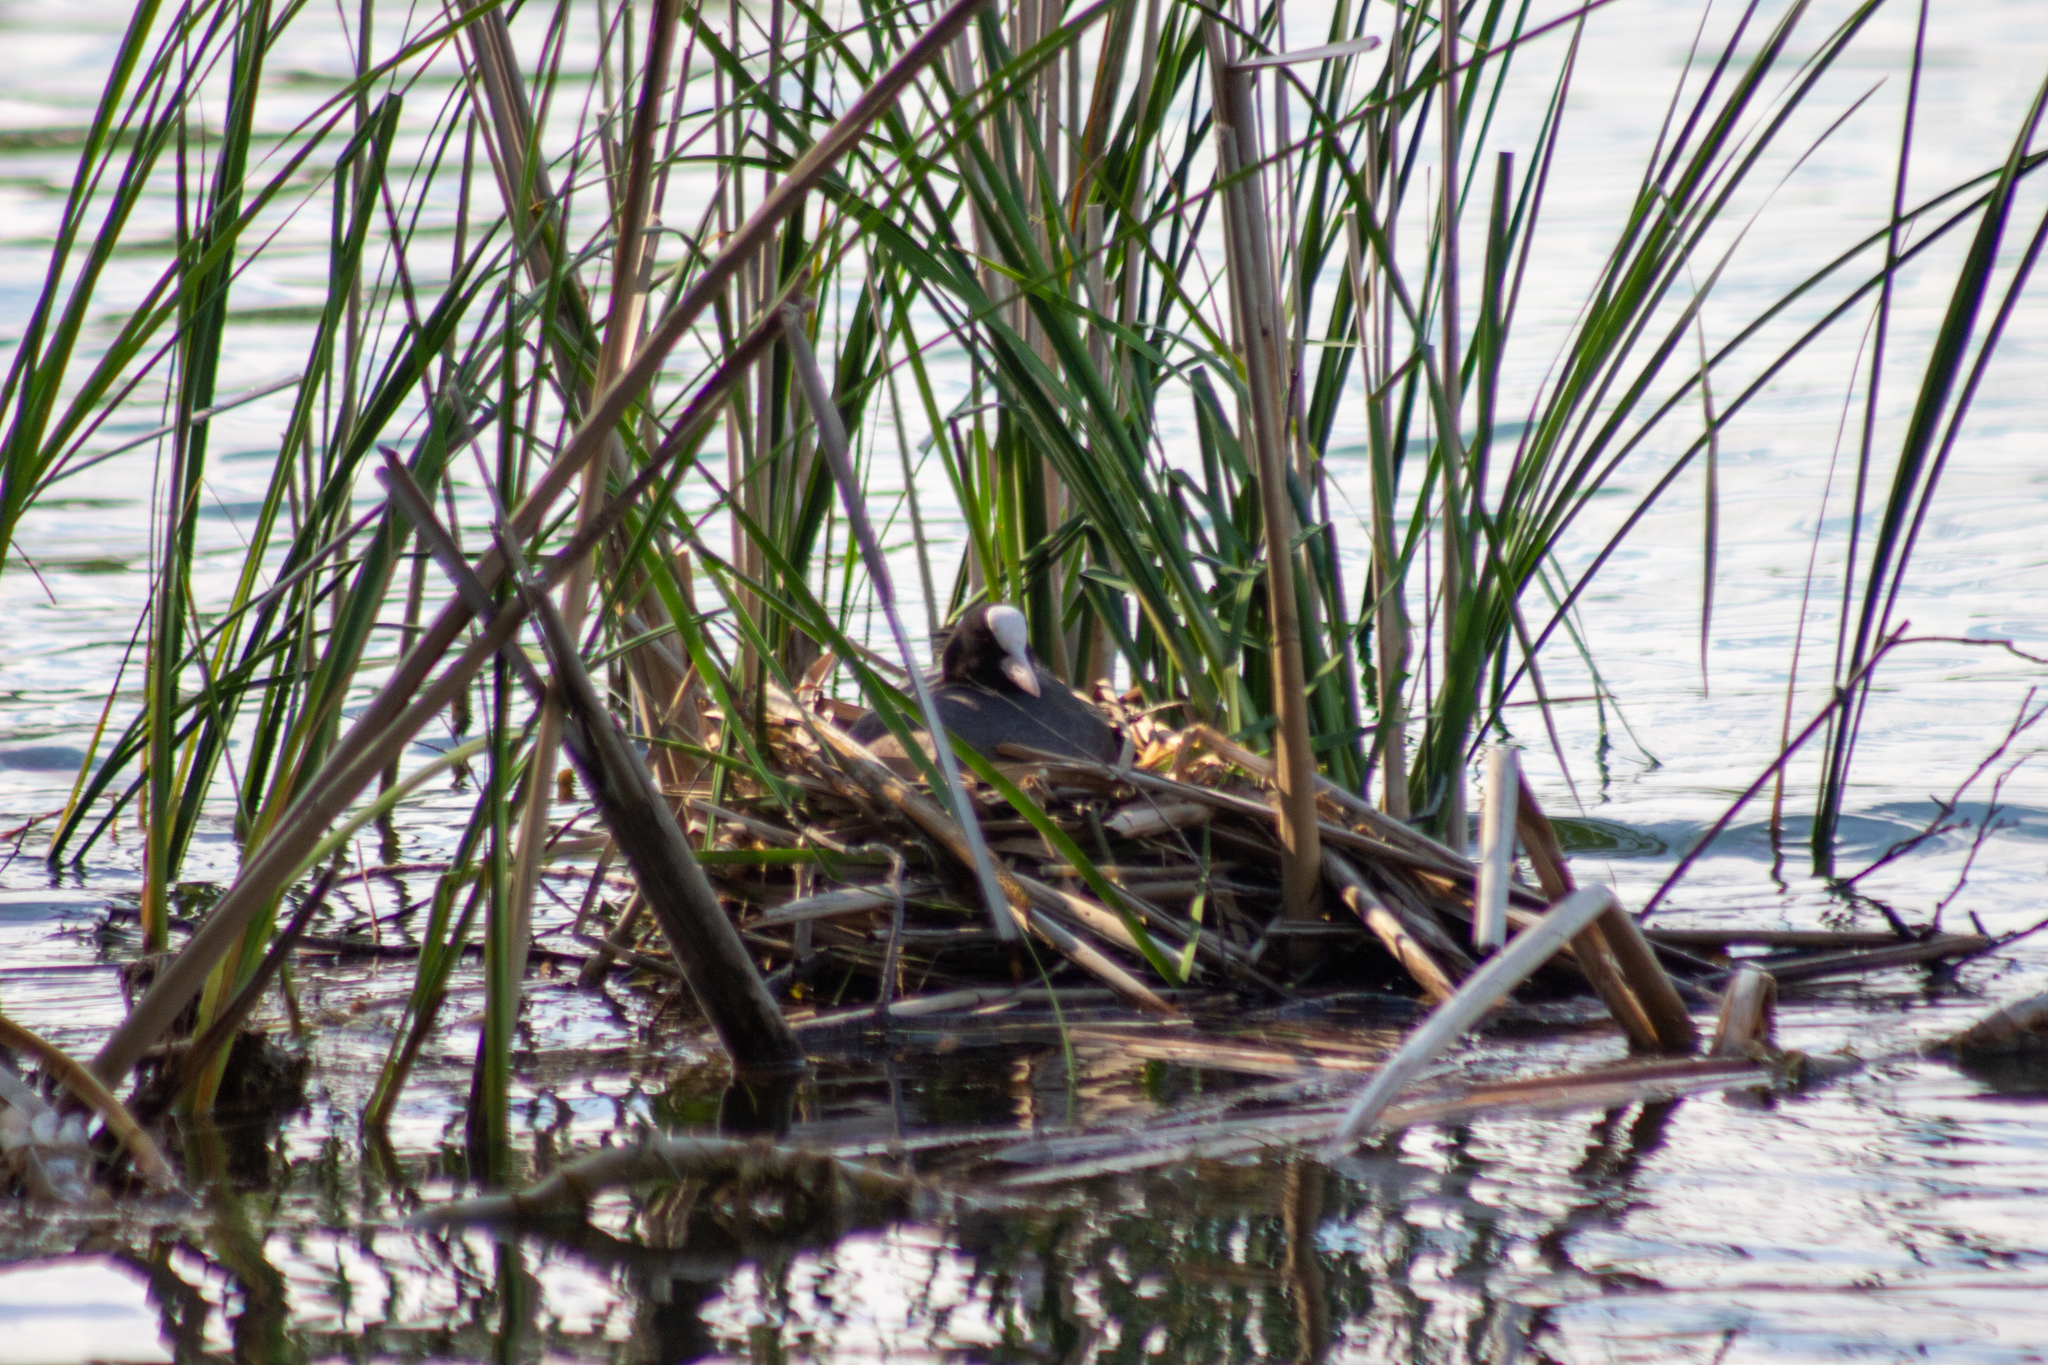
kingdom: Animalia
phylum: Chordata
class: Aves
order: Gruiformes
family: Rallidae
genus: Fulica
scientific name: Fulica atra
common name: Eurasian coot
